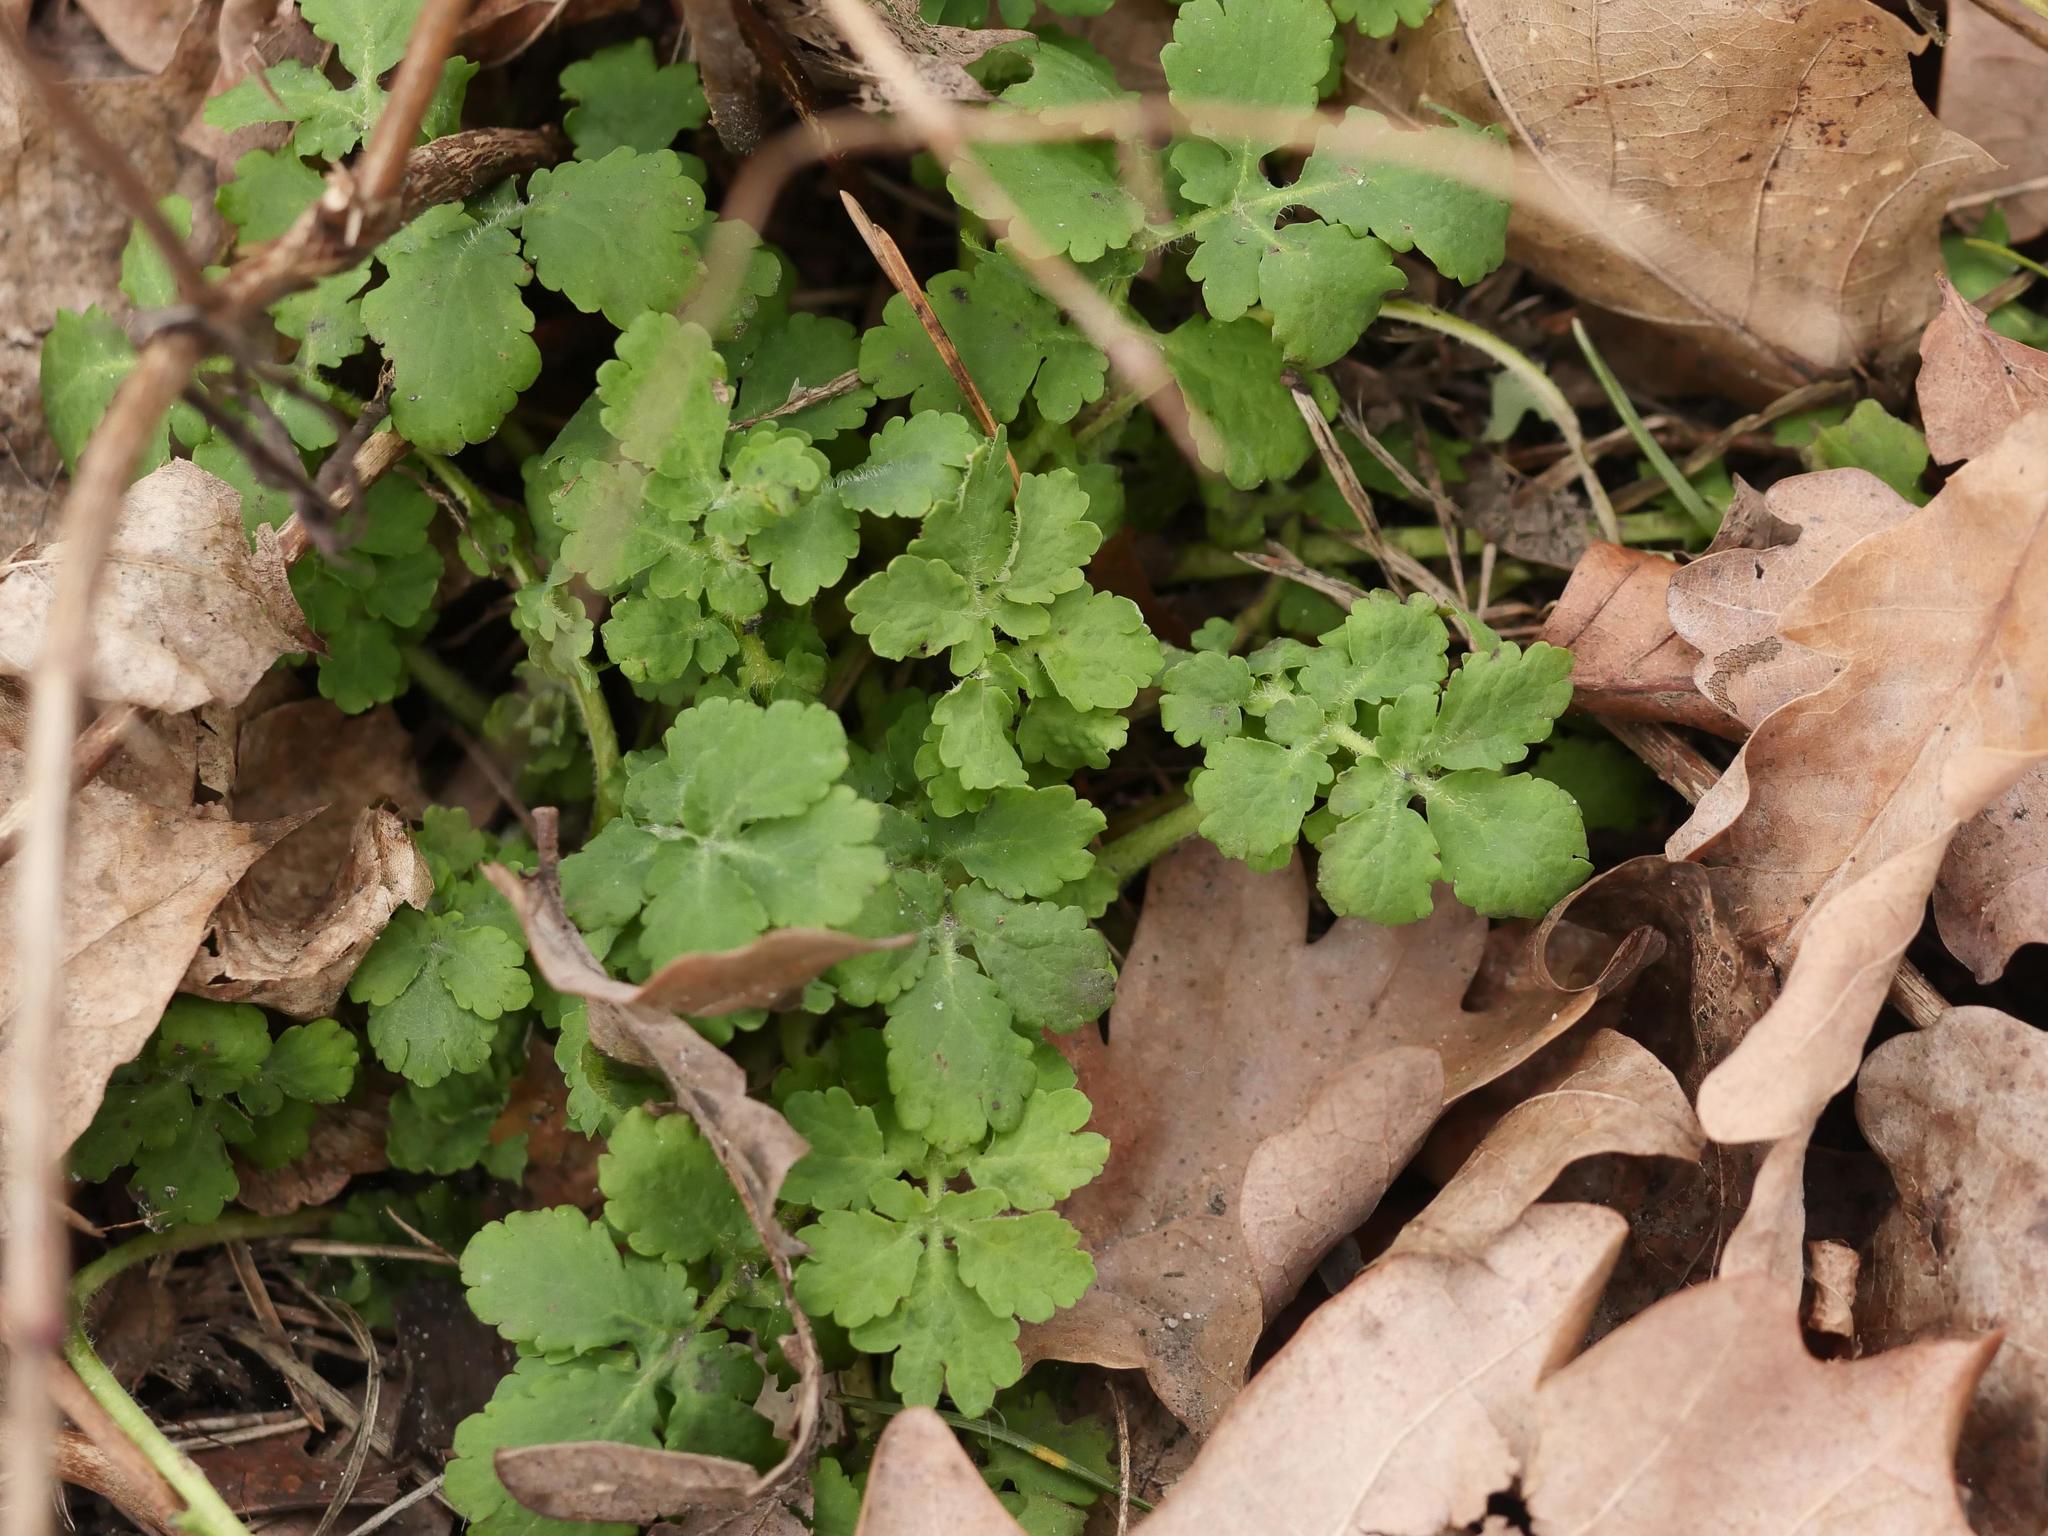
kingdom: Plantae
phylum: Tracheophyta
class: Magnoliopsida
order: Ranunculales
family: Papaveraceae
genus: Chelidonium
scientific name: Chelidonium majus
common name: Greater celandine
